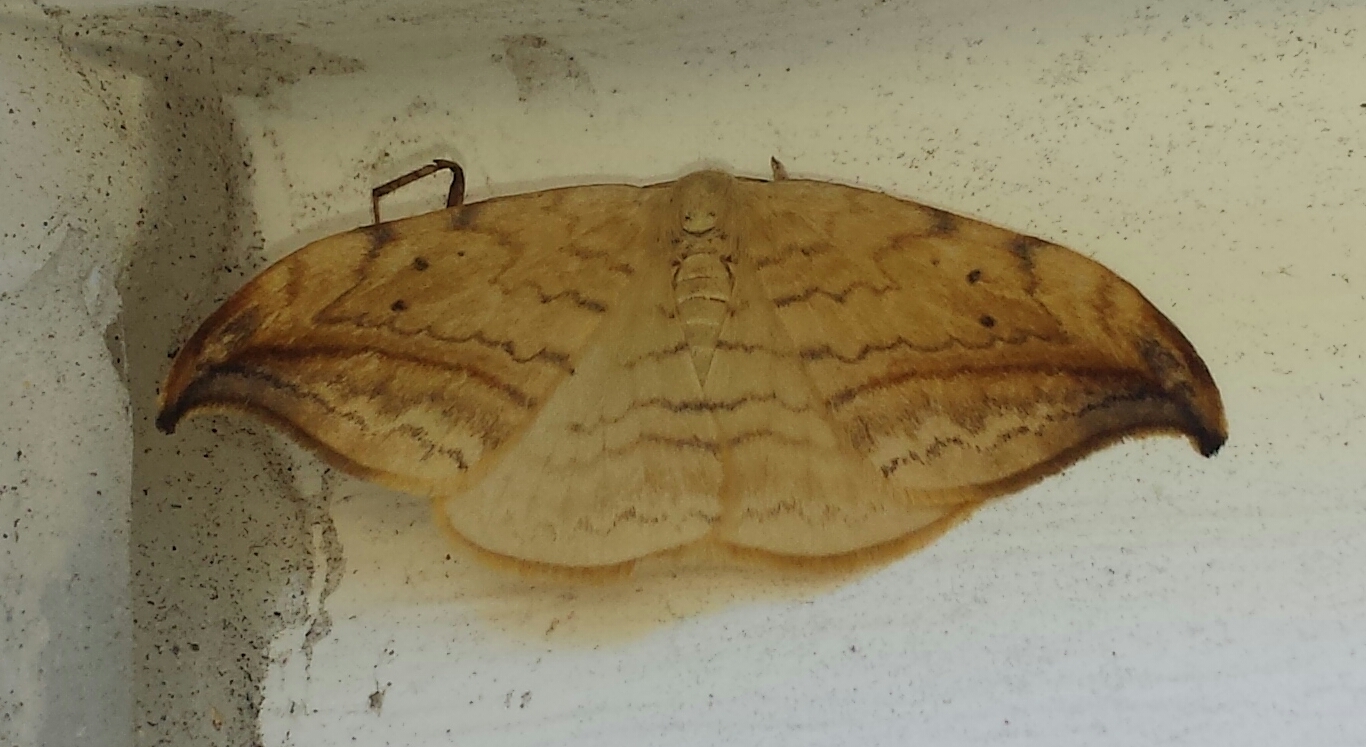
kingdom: Animalia
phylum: Arthropoda
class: Insecta
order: Lepidoptera
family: Drepanidae
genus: Drepana
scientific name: Drepana arcuata
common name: Arched hooktip moth
